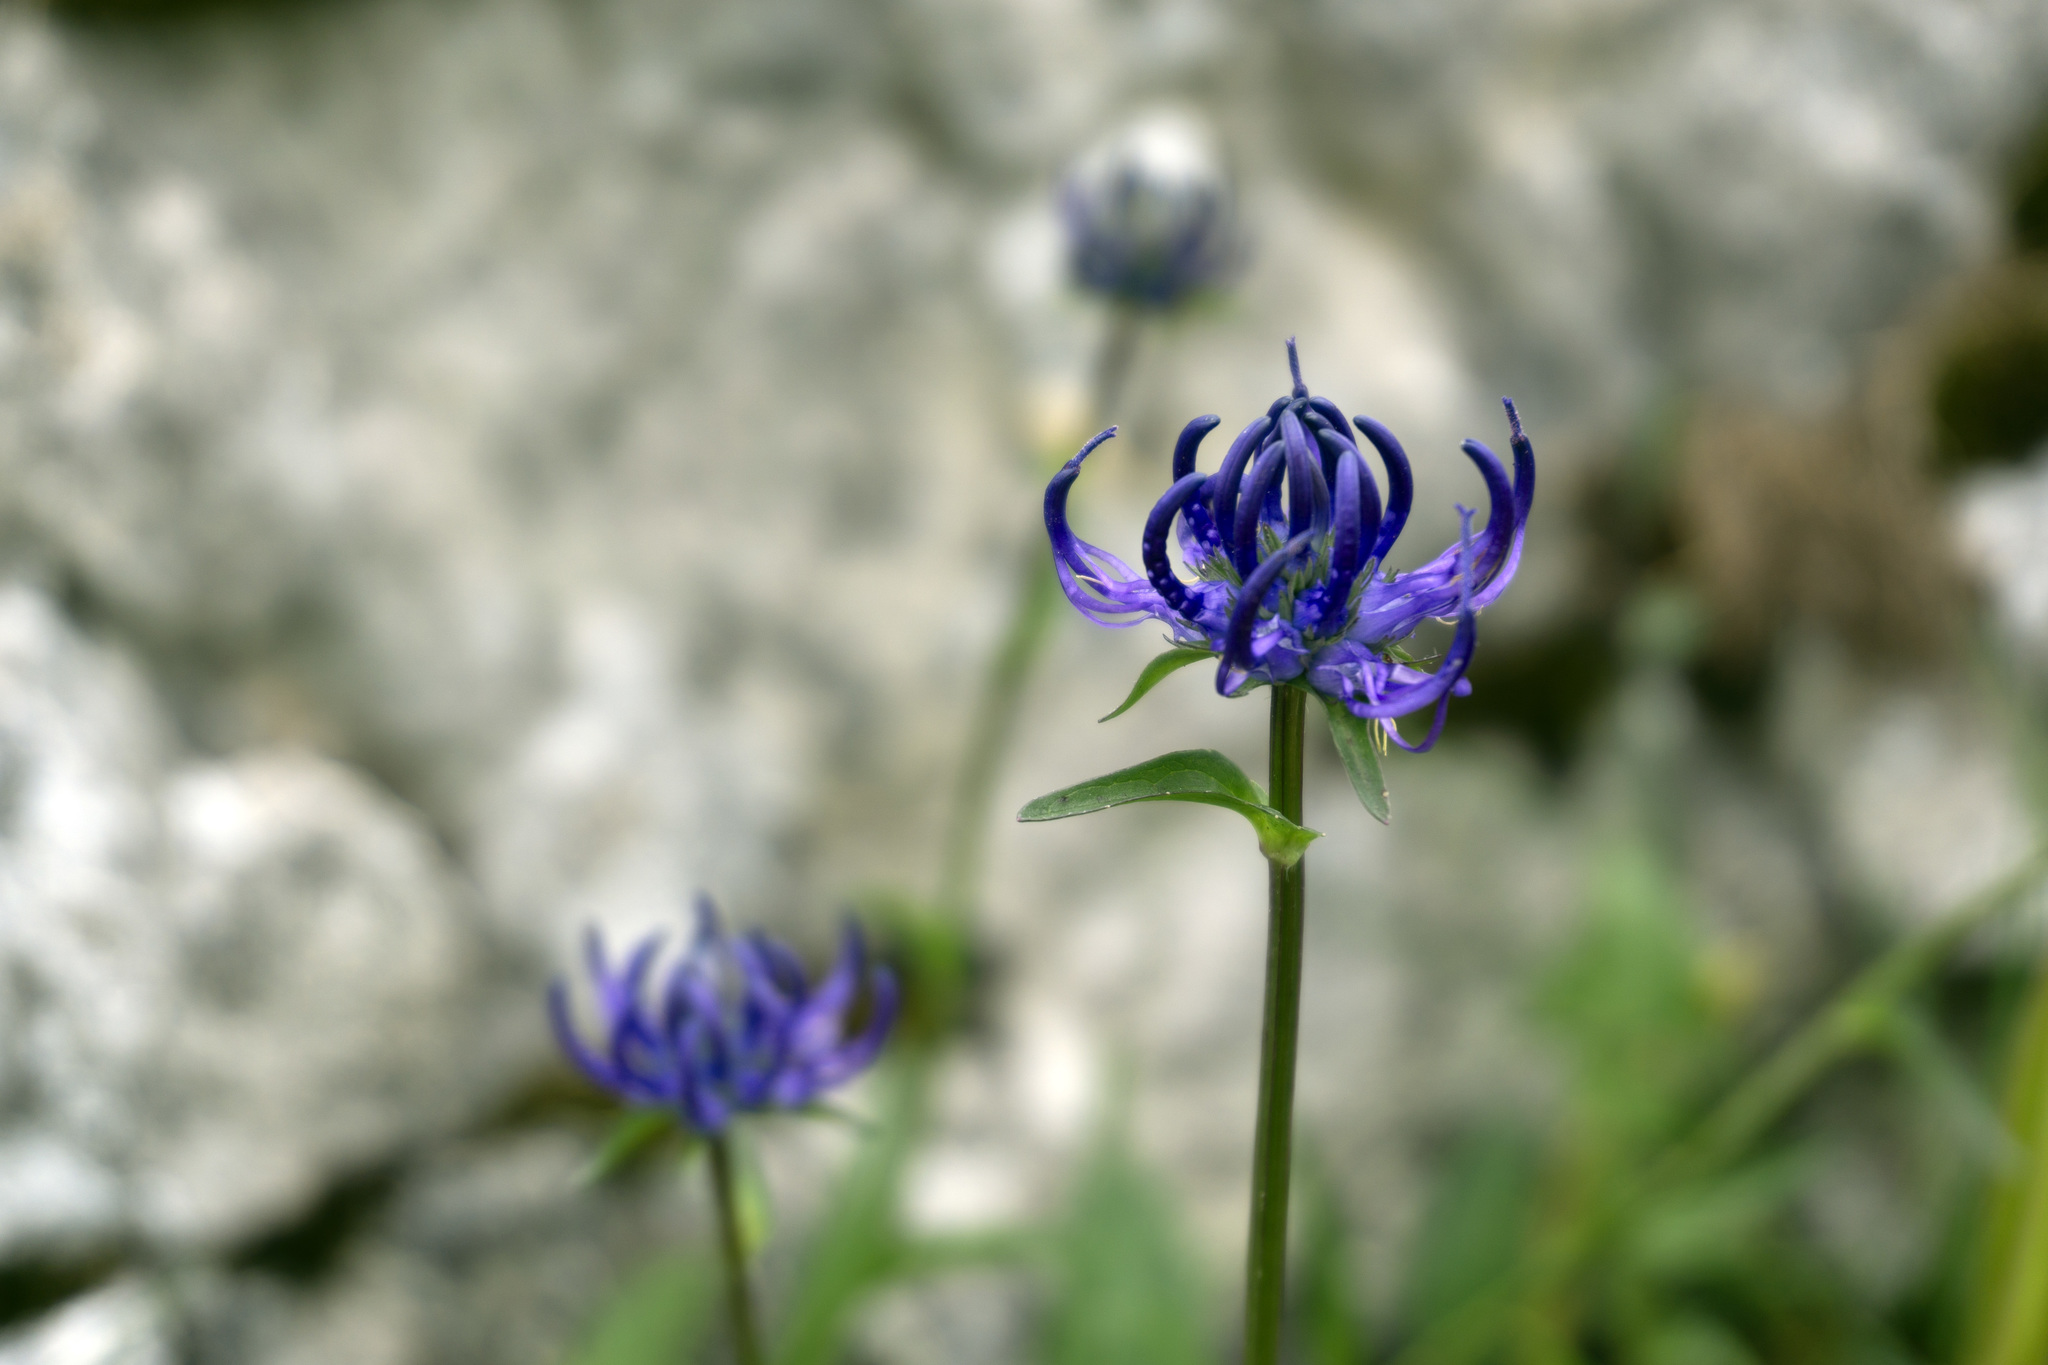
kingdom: Plantae
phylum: Tracheophyta
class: Magnoliopsida
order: Asterales
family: Campanulaceae
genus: Phyteuma
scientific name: Phyteuma orbiculare
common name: Round-headed rampion
